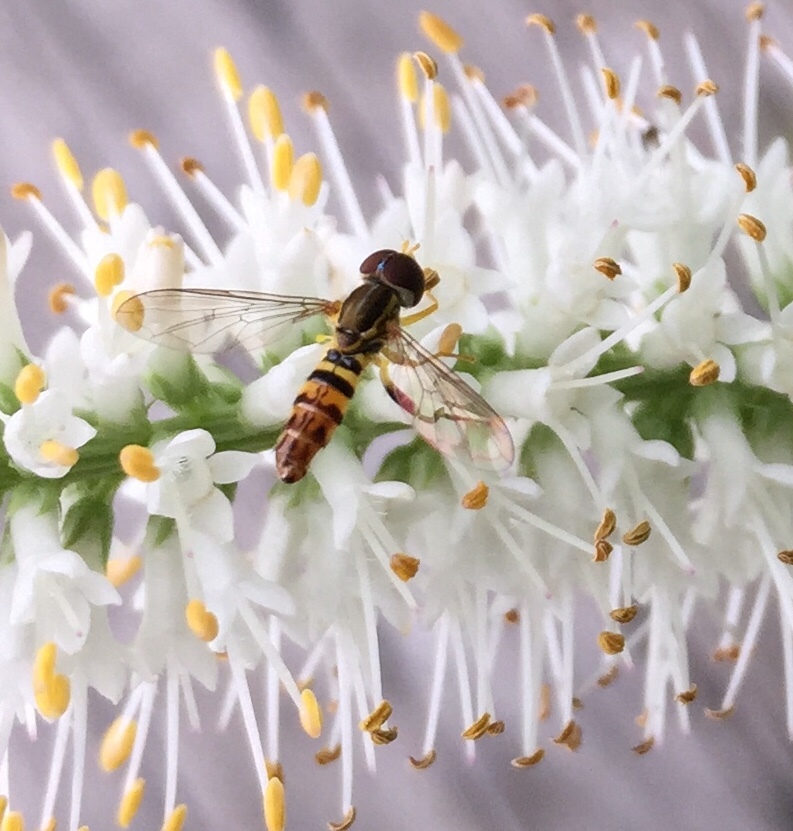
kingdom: Animalia
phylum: Arthropoda
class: Insecta
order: Diptera
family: Syrphidae
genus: Toxomerus
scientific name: Toxomerus geminatus
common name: Eastern calligrapher
